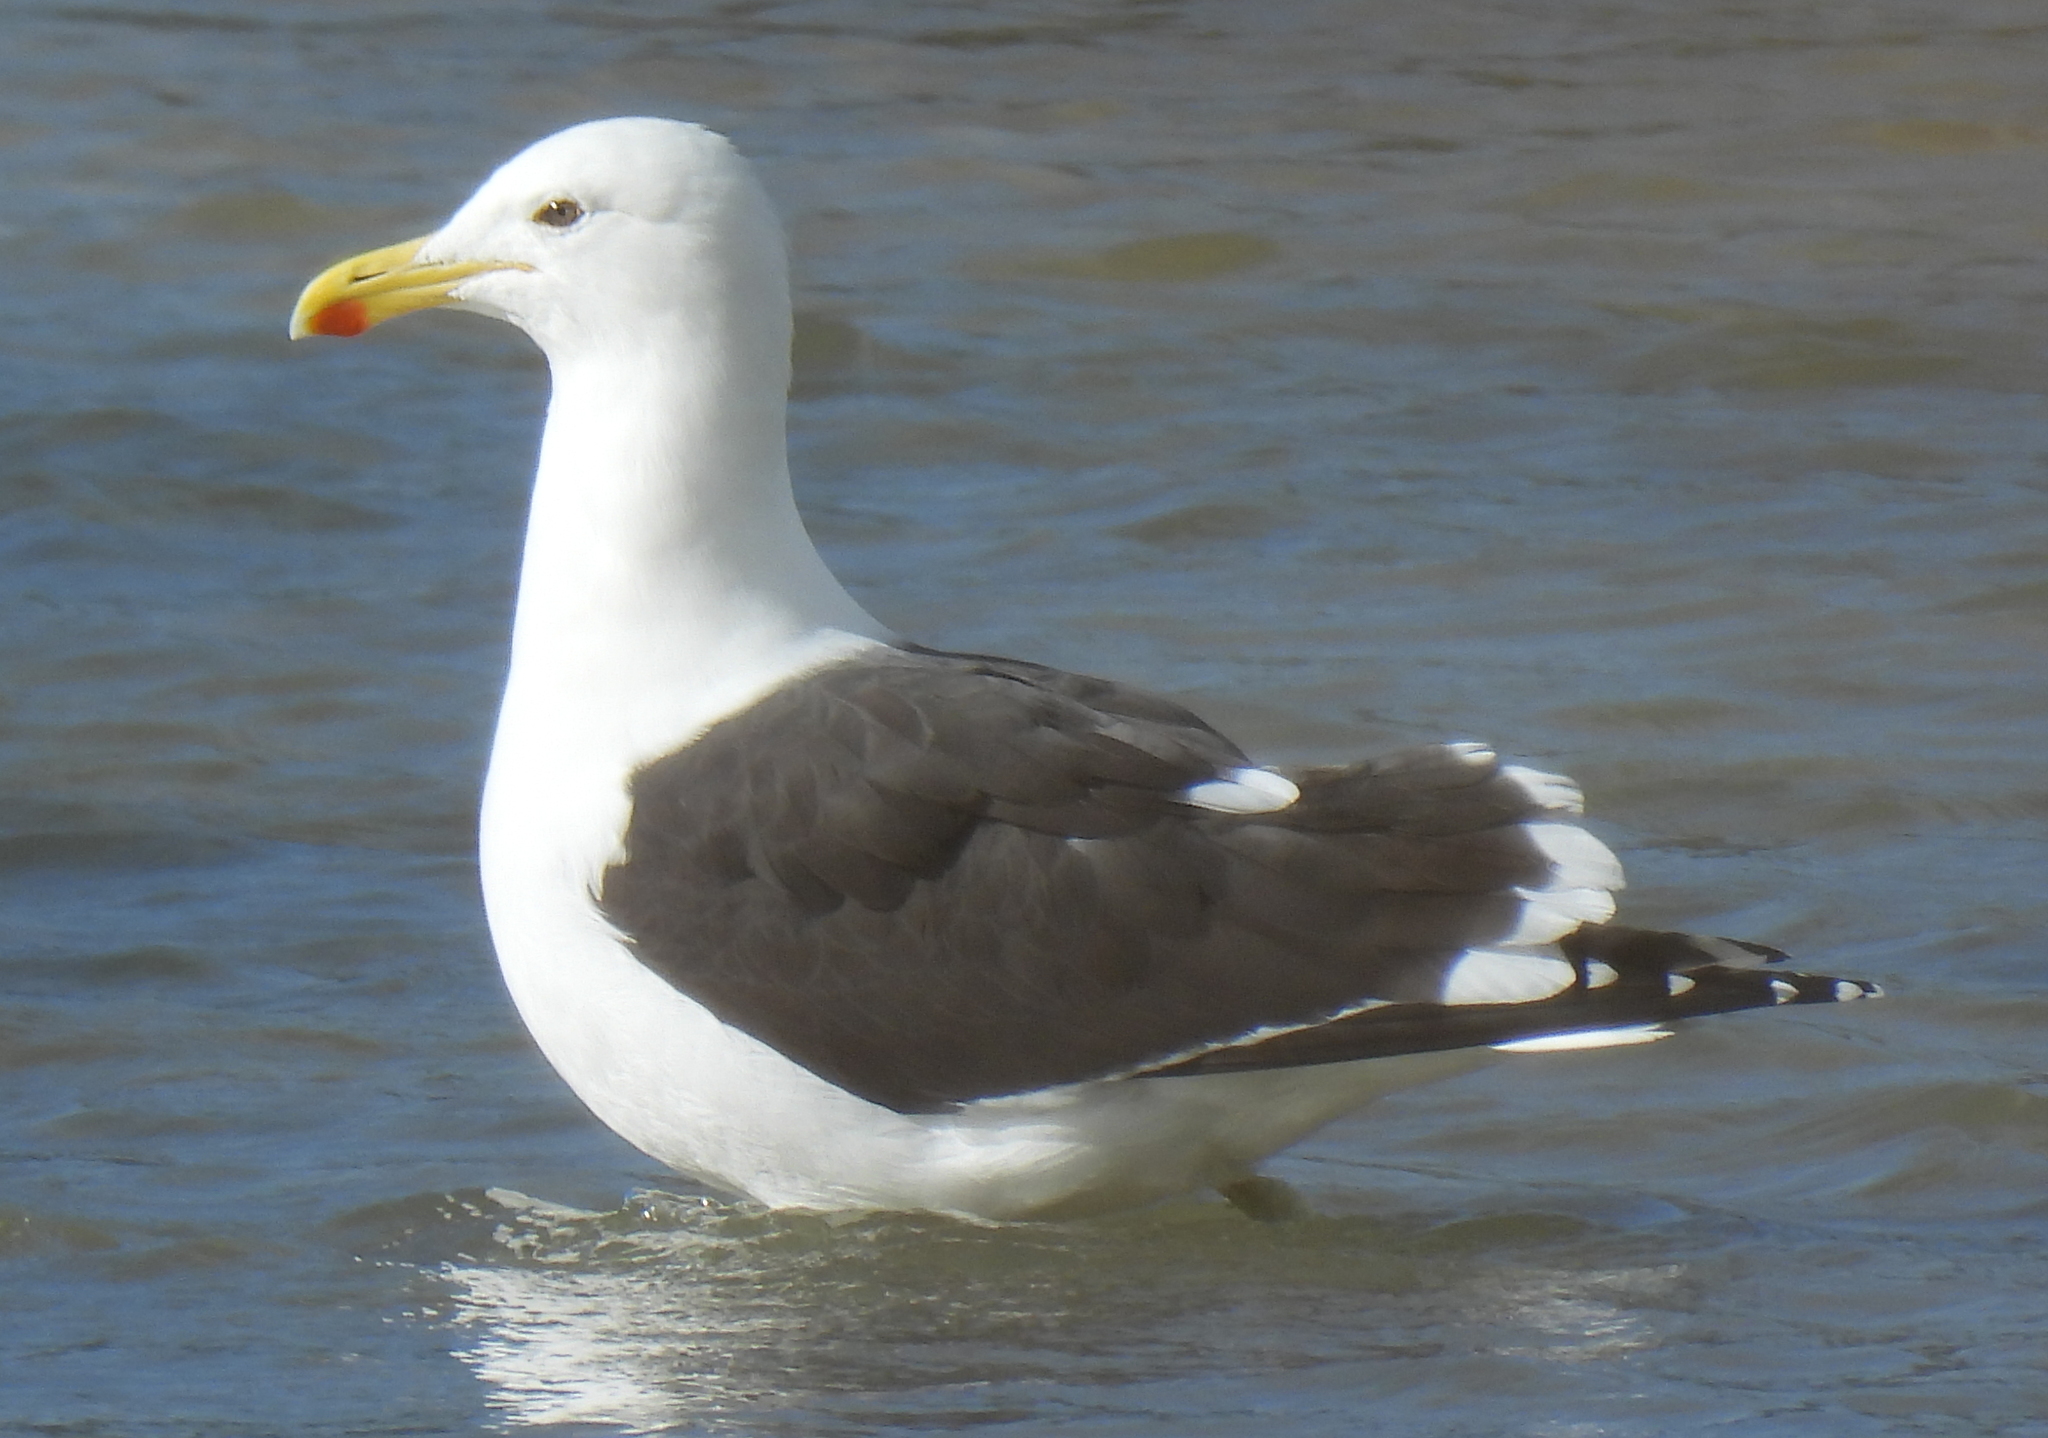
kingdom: Animalia
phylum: Chordata
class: Aves
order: Charadriiformes
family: Laridae
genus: Larus
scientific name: Larus dominicanus
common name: Kelp gull
